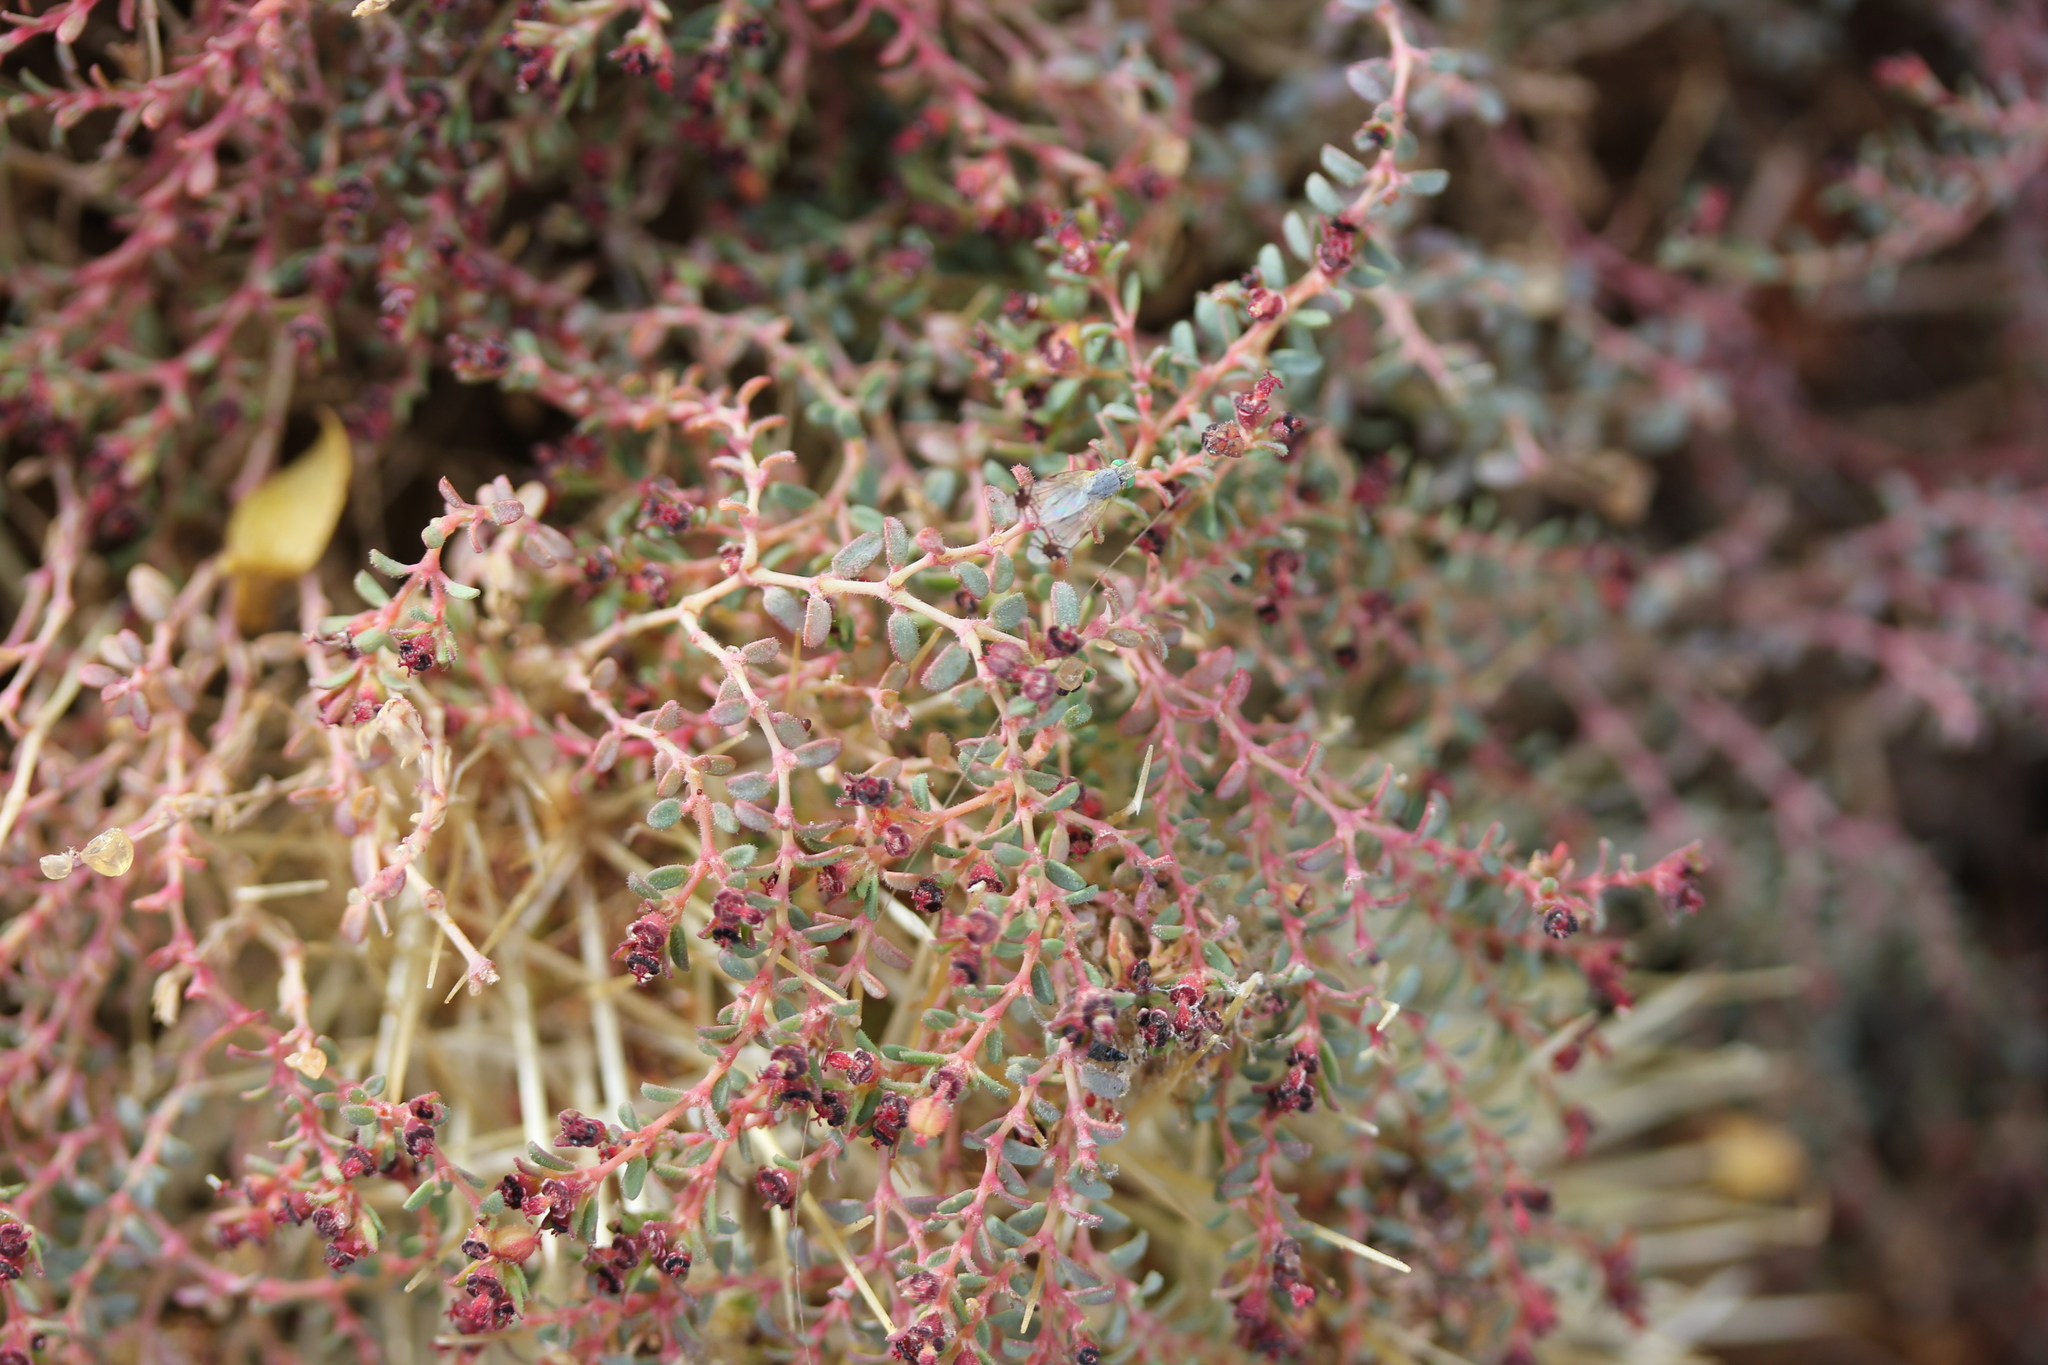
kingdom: Plantae
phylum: Tracheophyta
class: Magnoliopsida
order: Malpighiales
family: Euphorbiaceae
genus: Euphorbia
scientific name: Euphorbia polycarpa
